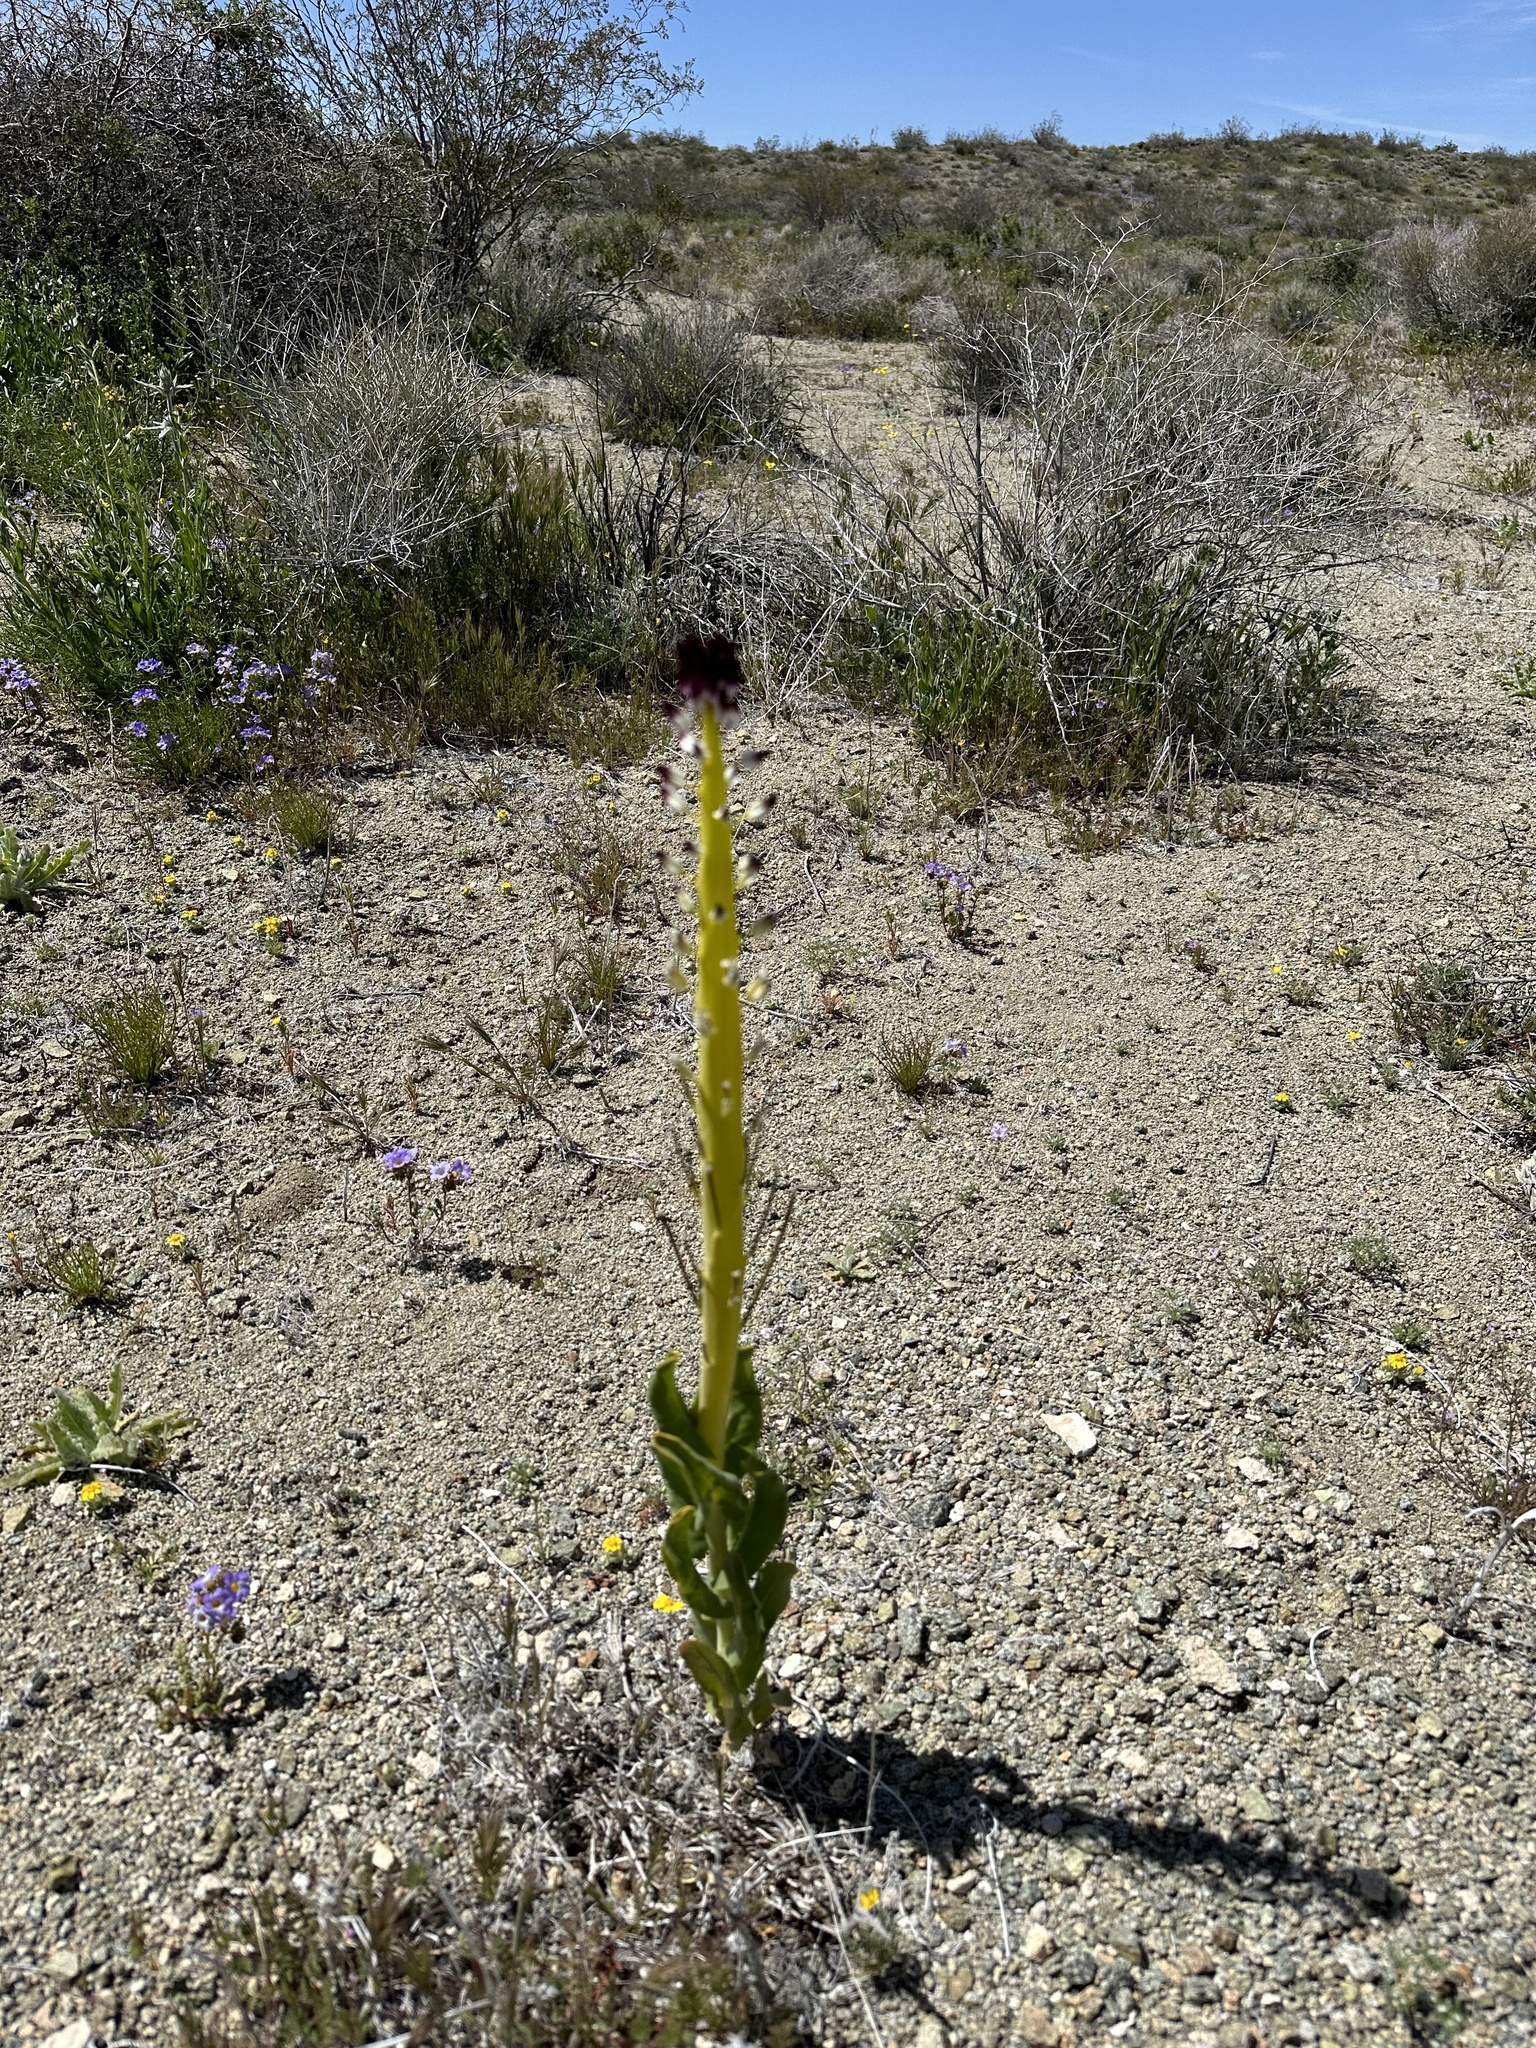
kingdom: Plantae
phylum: Tracheophyta
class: Magnoliopsida
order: Brassicales
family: Brassicaceae
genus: Streptanthus
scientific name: Streptanthus inflatus
